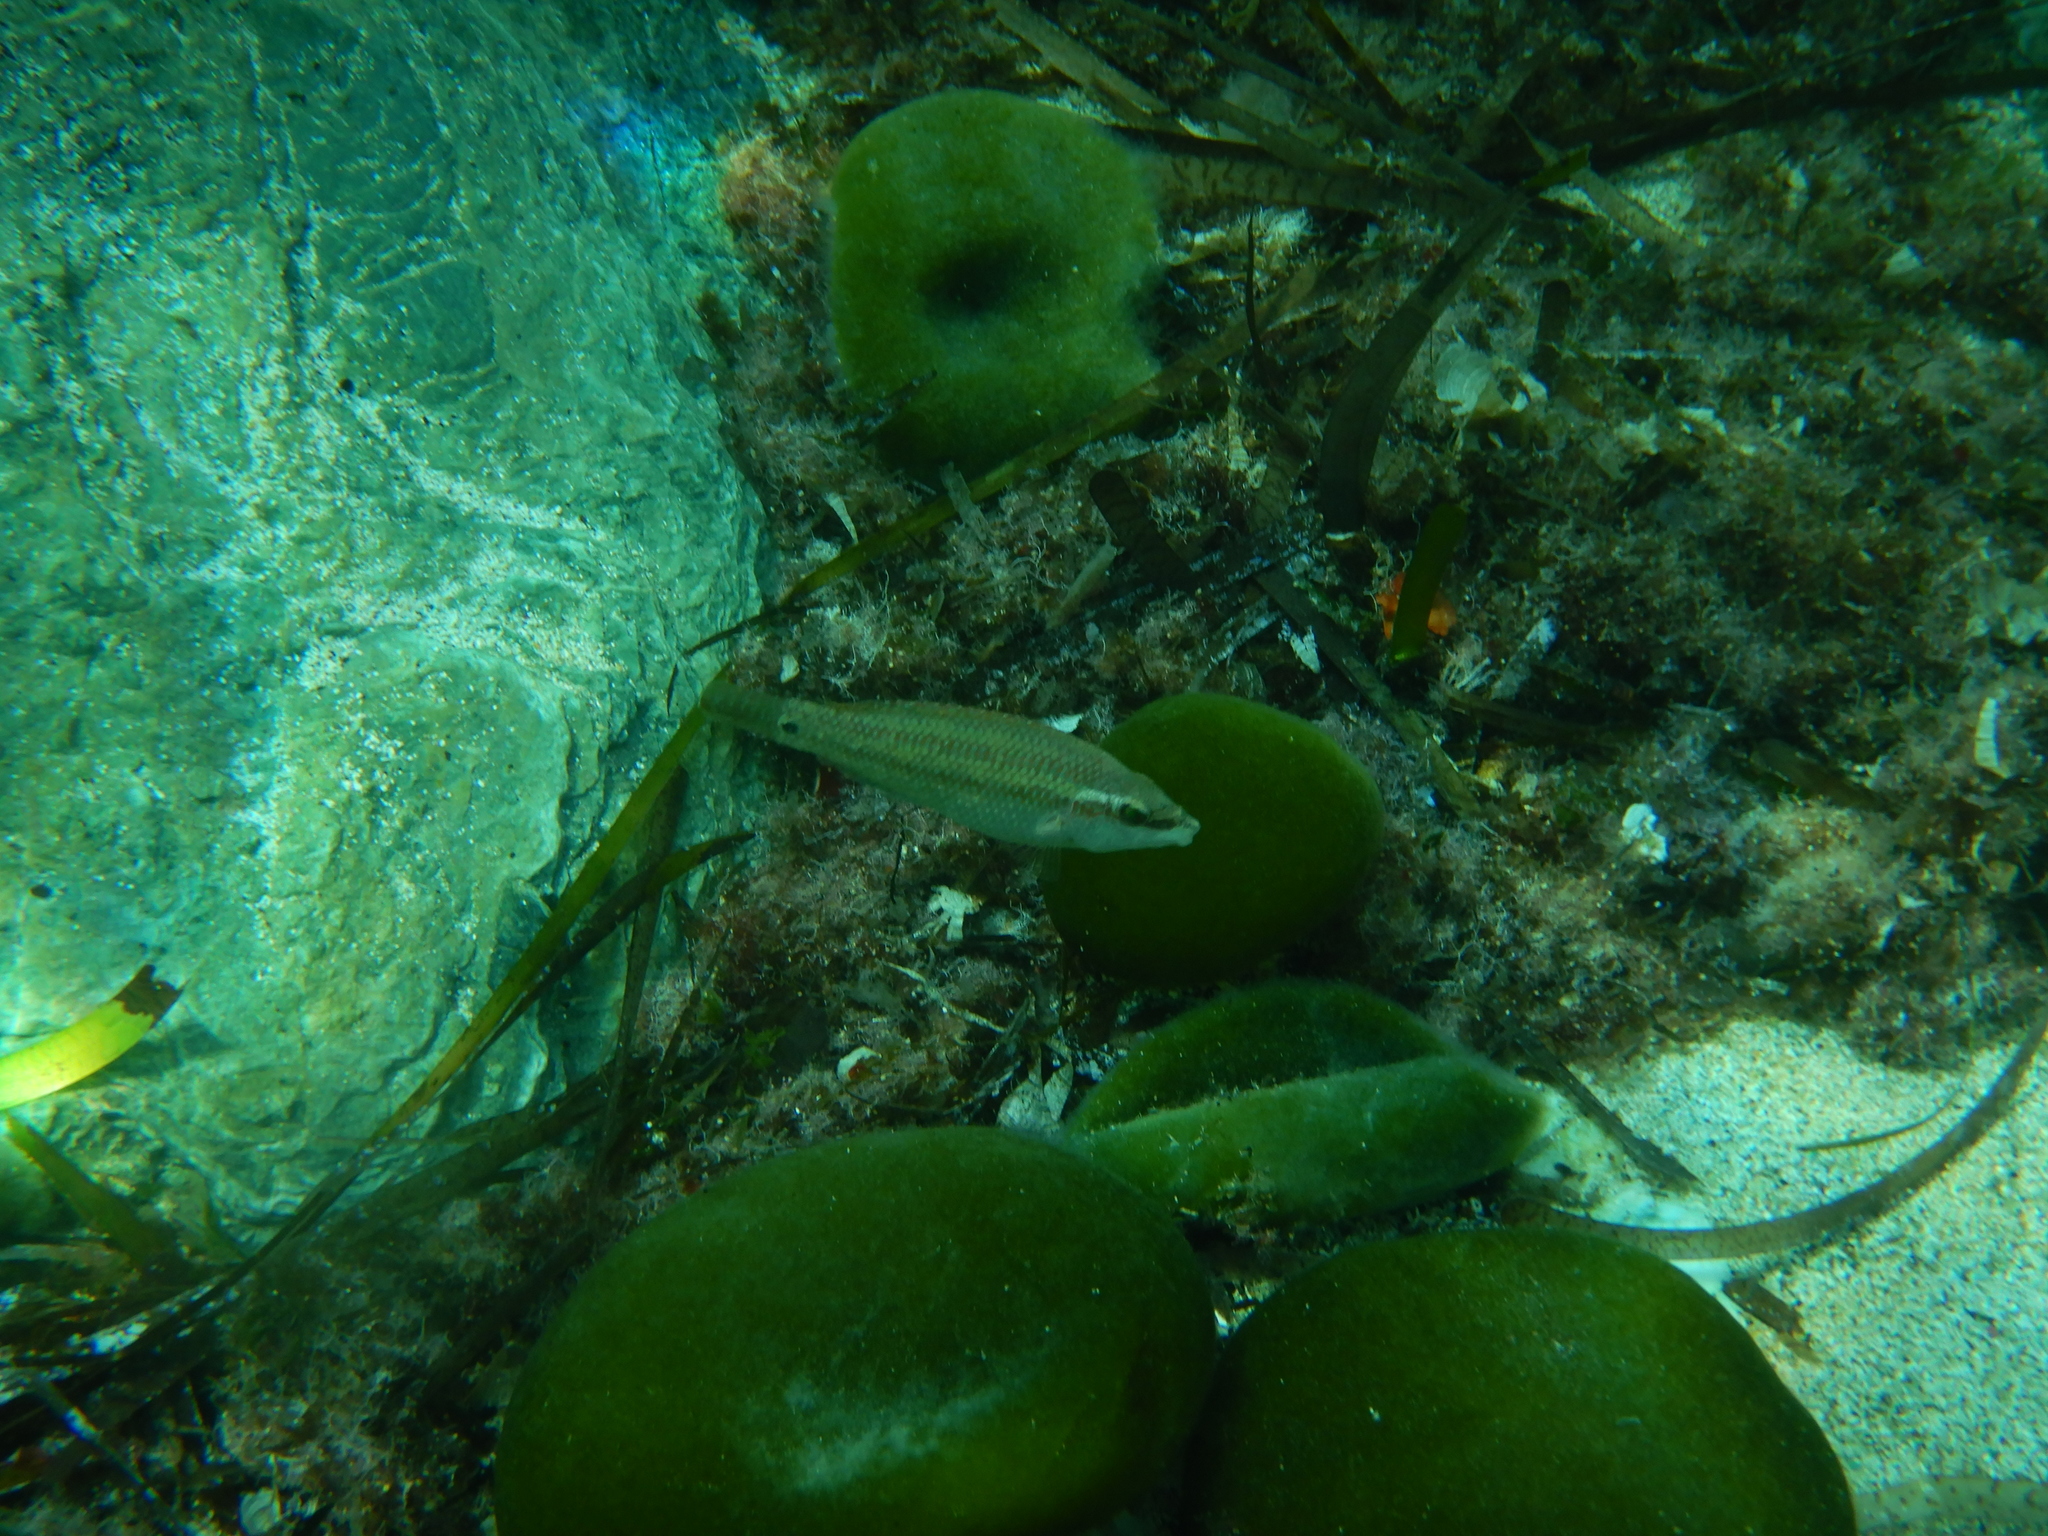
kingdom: Animalia
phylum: Chordata
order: Perciformes
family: Labridae
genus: Symphodus
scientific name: Symphodus tinca
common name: Peacock wrasse
